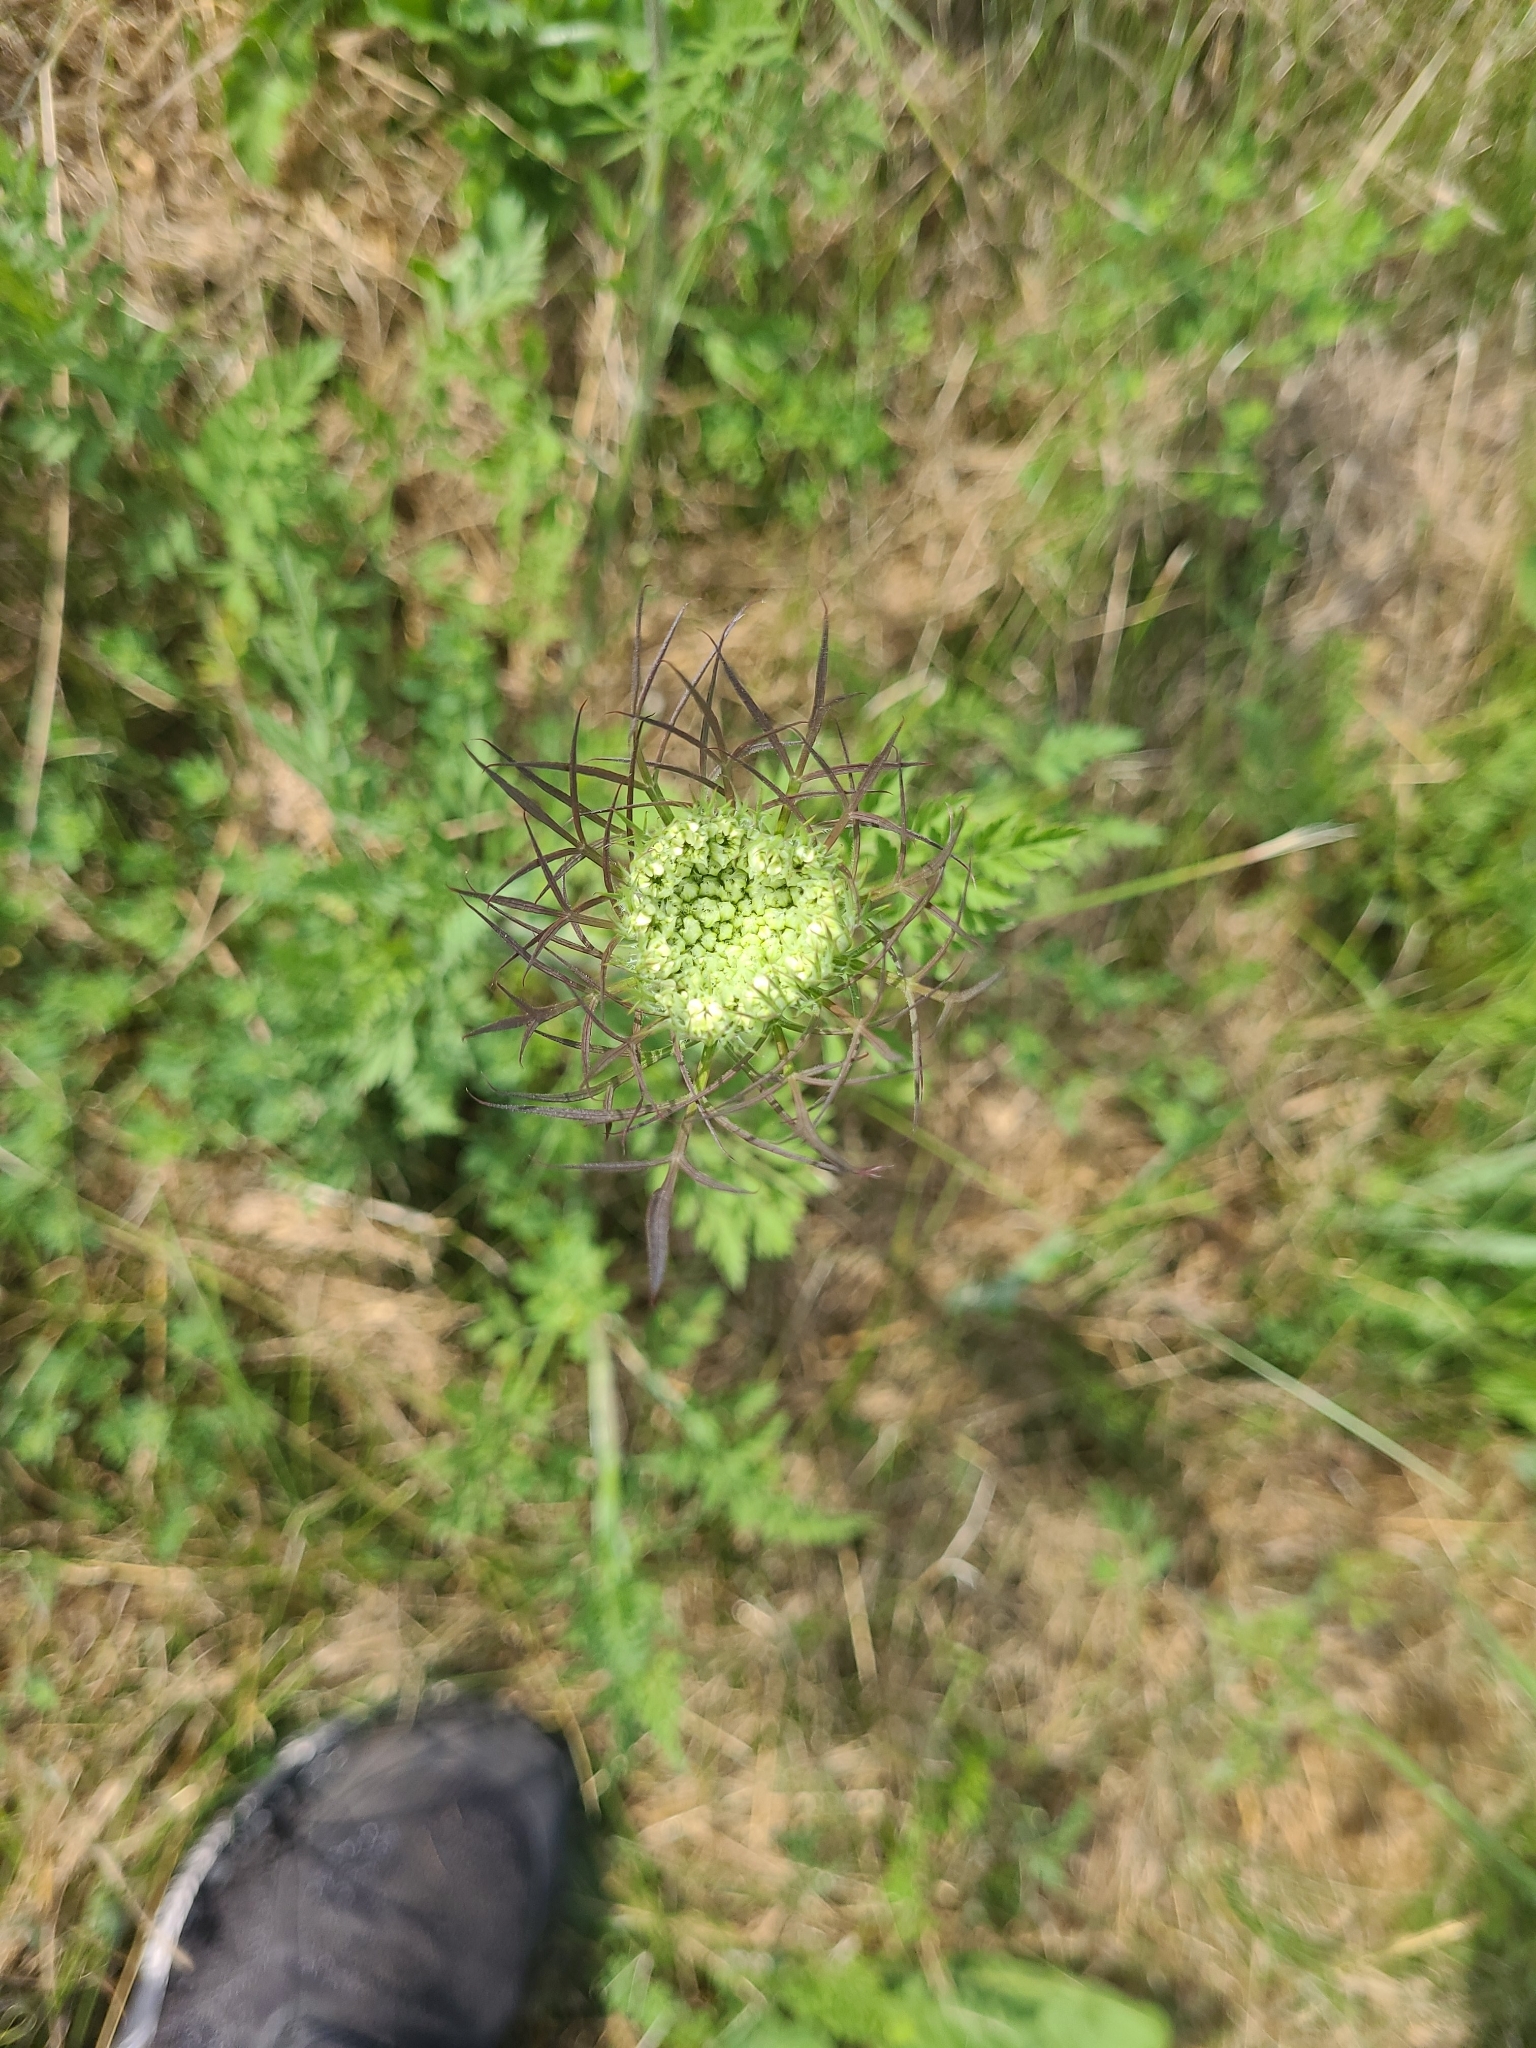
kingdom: Plantae
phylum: Tracheophyta
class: Magnoliopsida
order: Apiales
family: Apiaceae
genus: Daucus
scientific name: Daucus carota
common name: Wild carrot
